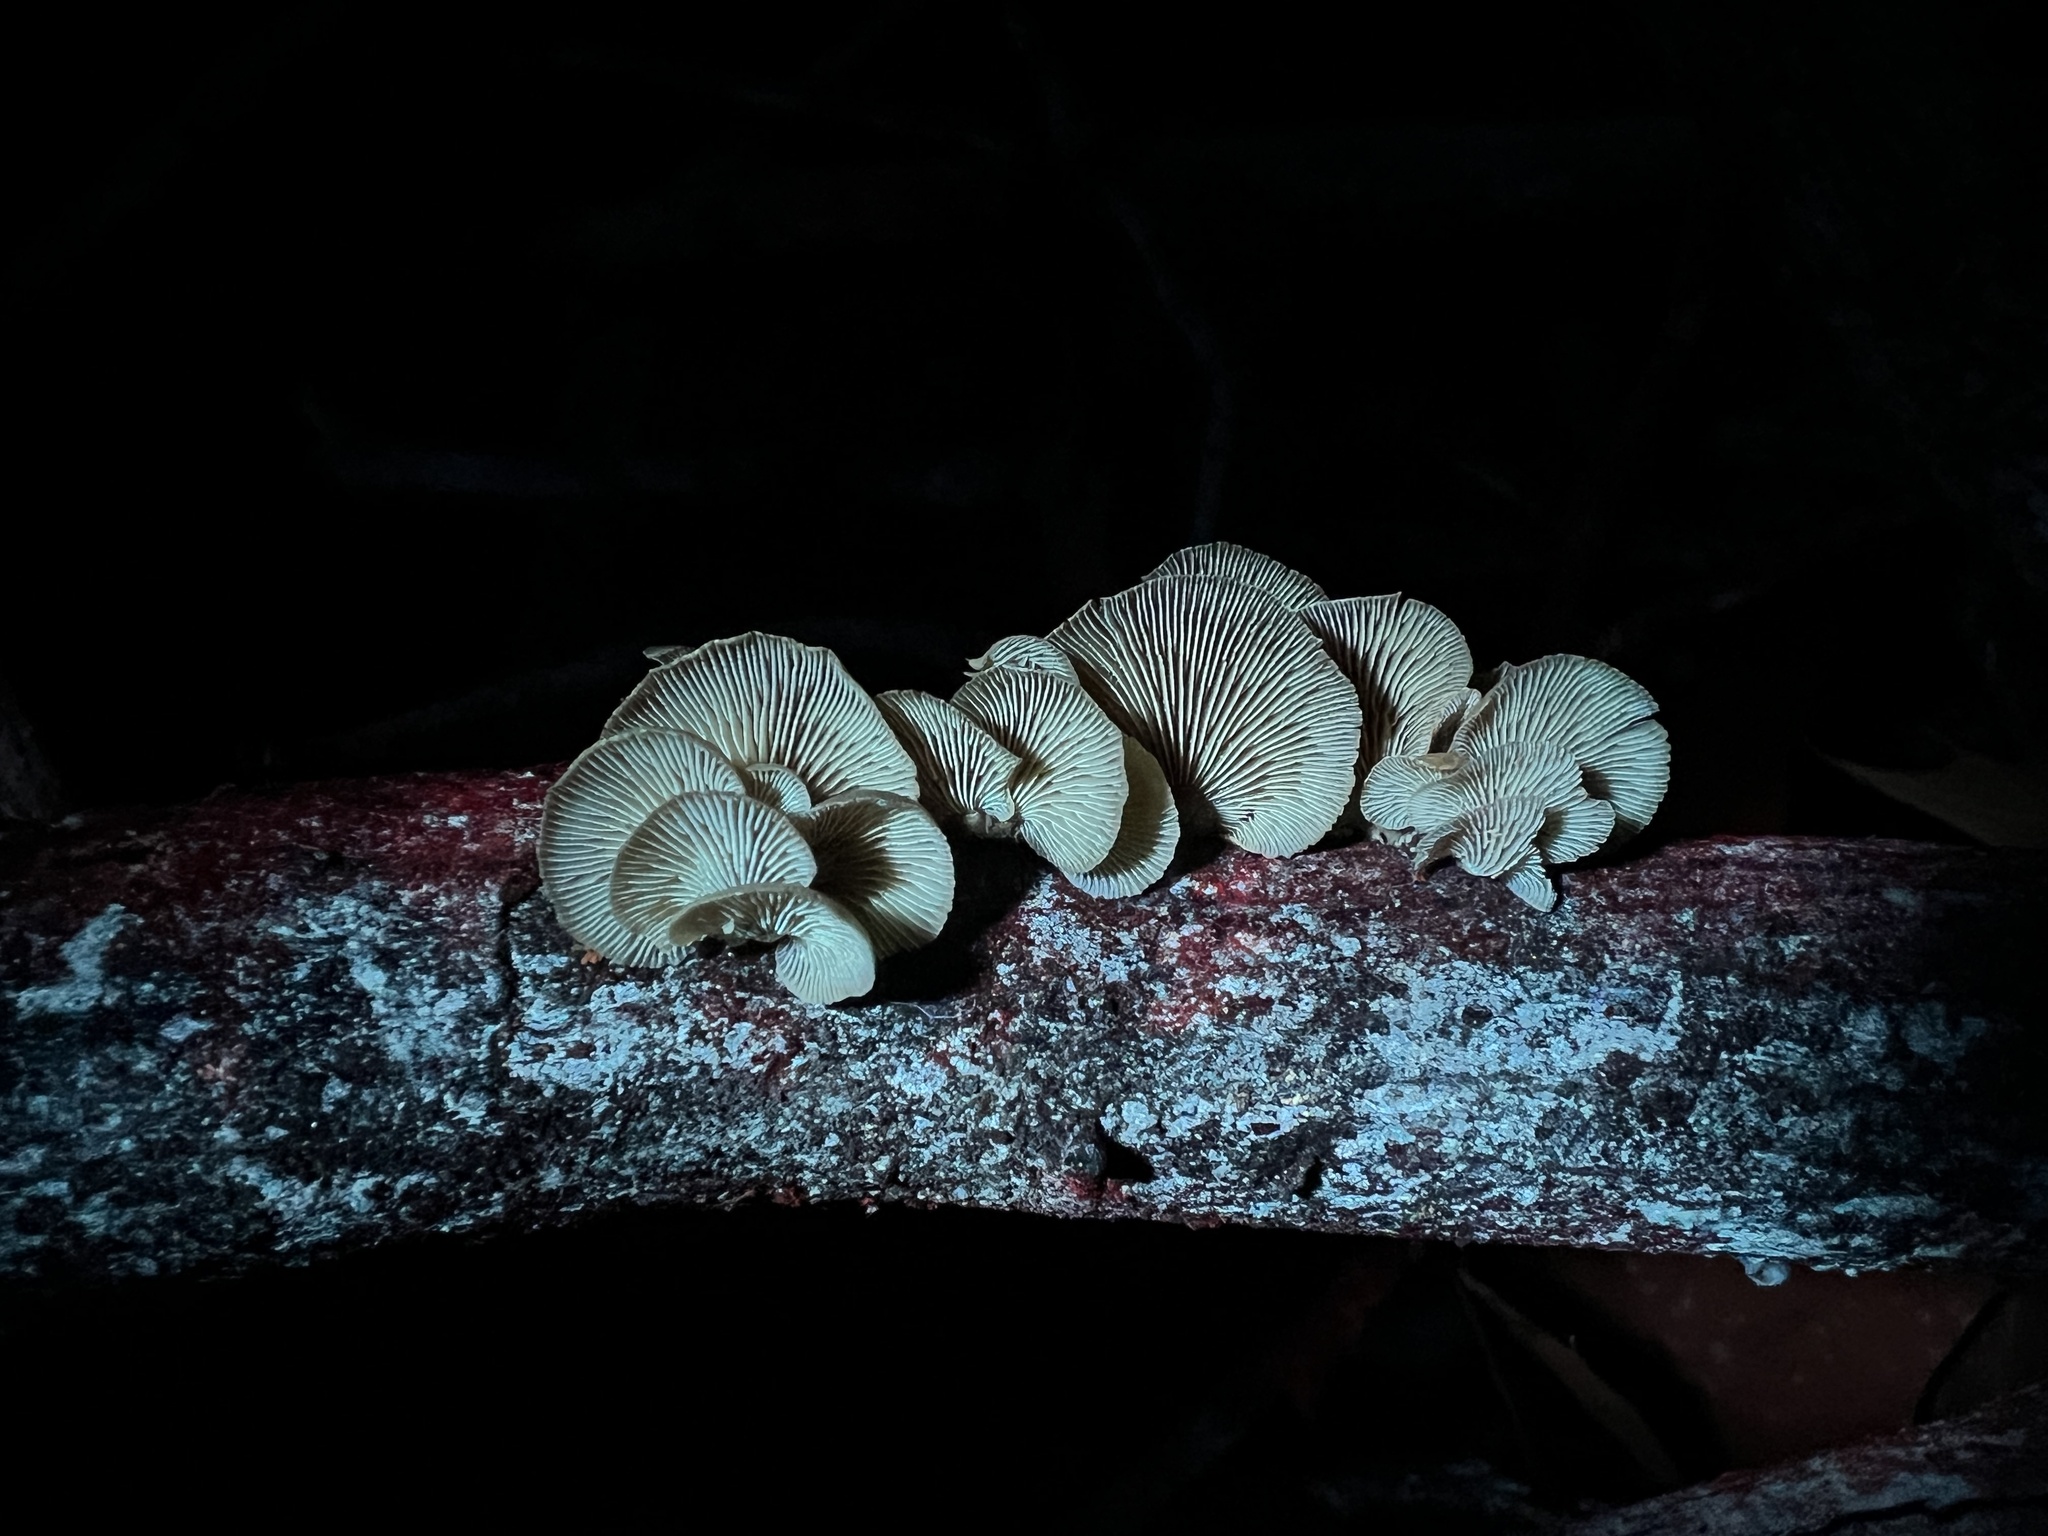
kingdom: Fungi
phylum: Basidiomycota
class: Agaricomycetes
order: Agaricales
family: Mycenaceae
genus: Panellus
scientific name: Panellus stipticus
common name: Bitter oysterling
